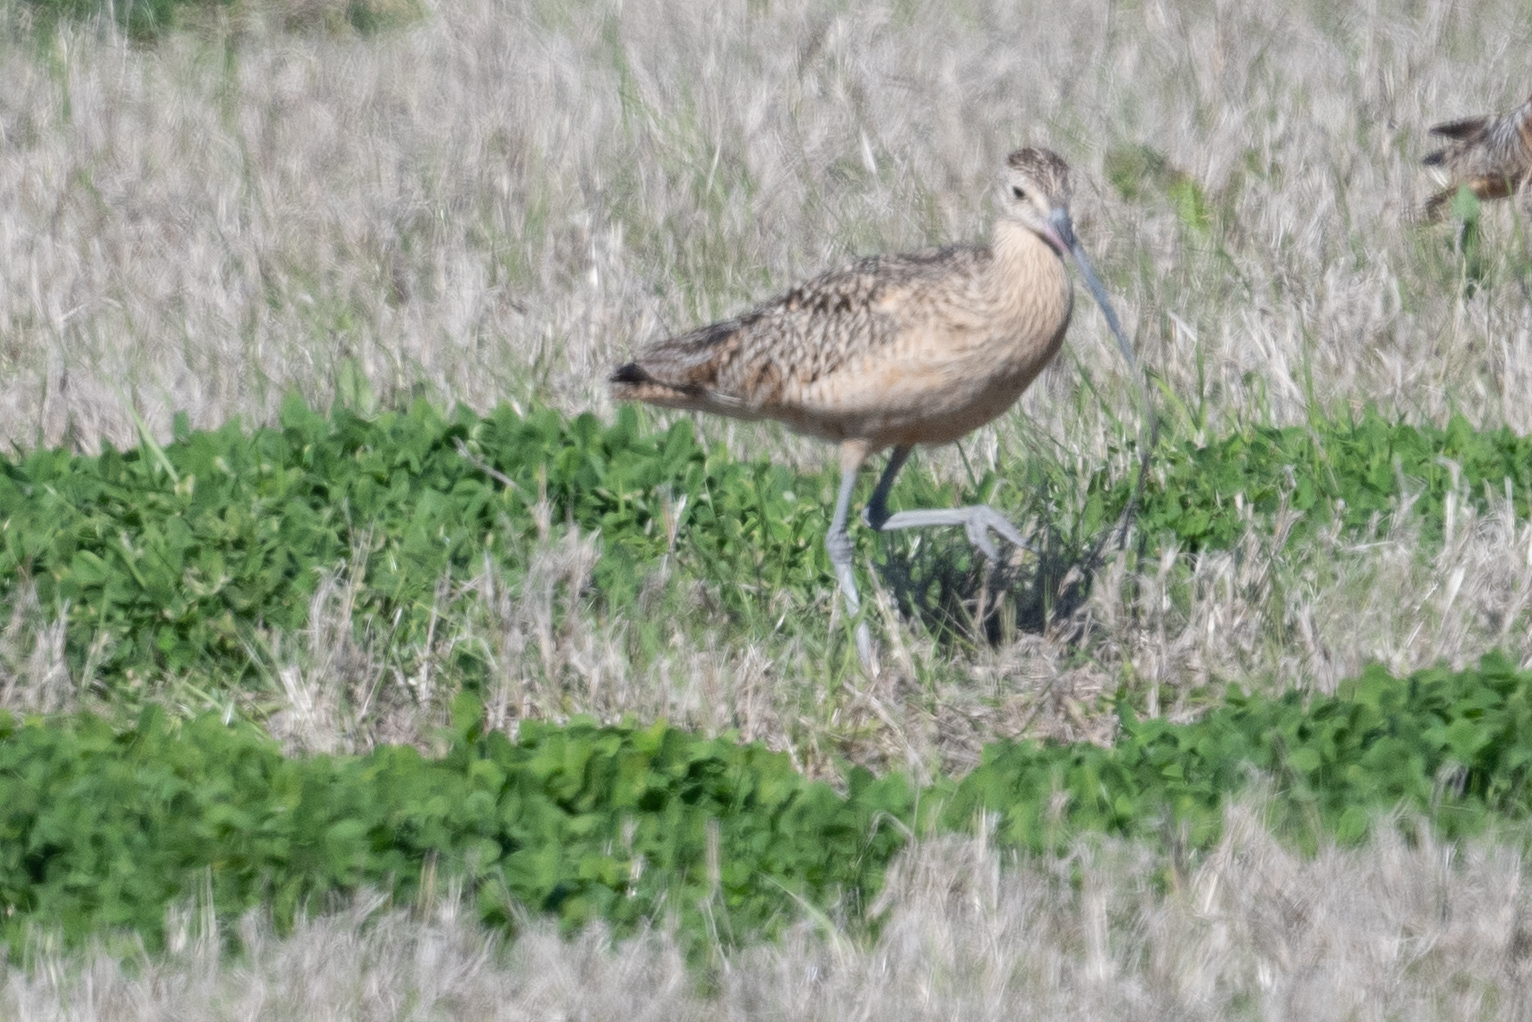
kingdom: Animalia
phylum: Chordata
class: Aves
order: Charadriiformes
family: Scolopacidae
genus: Numenius
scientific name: Numenius americanus
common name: Long-billed curlew
